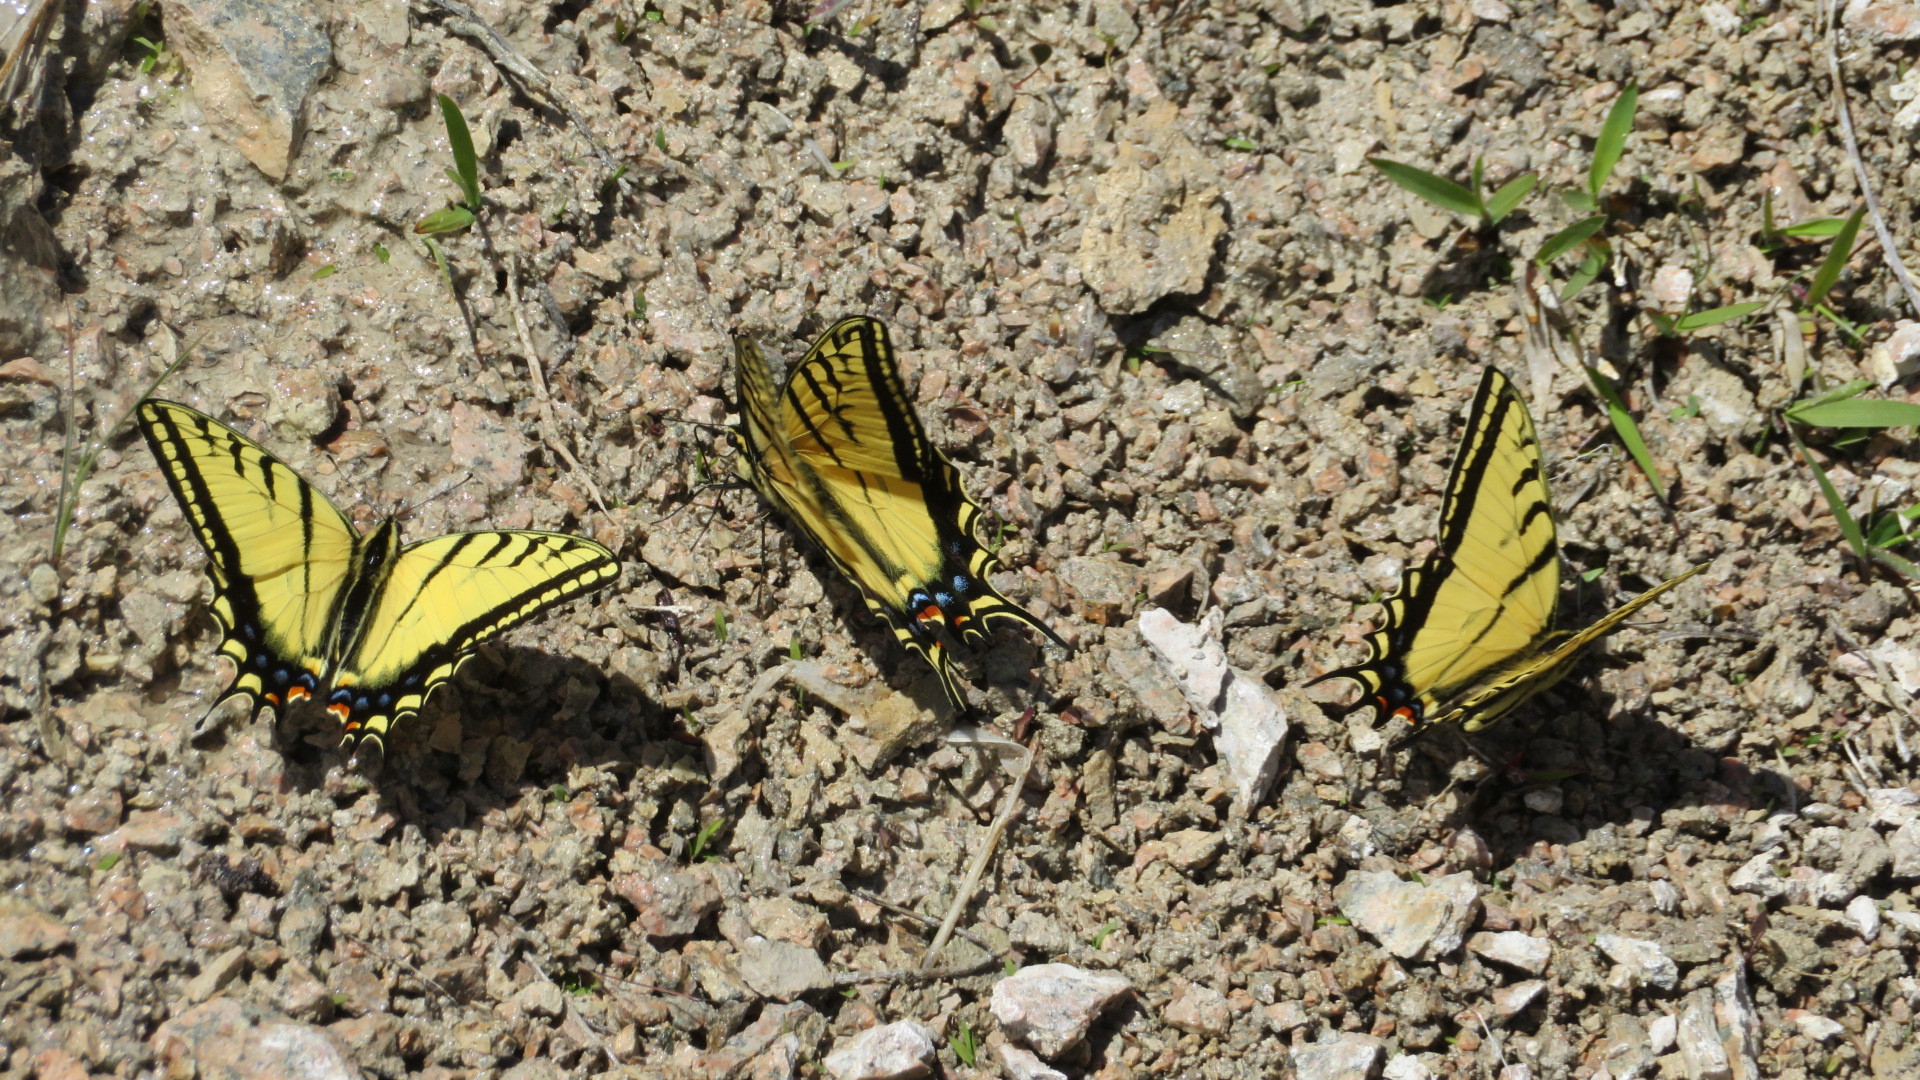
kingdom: Animalia
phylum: Arthropoda
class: Insecta
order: Lepidoptera
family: Papilionidae
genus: Papilio
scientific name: Papilio multicaudata
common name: Two-tailed tiger swallowtail
